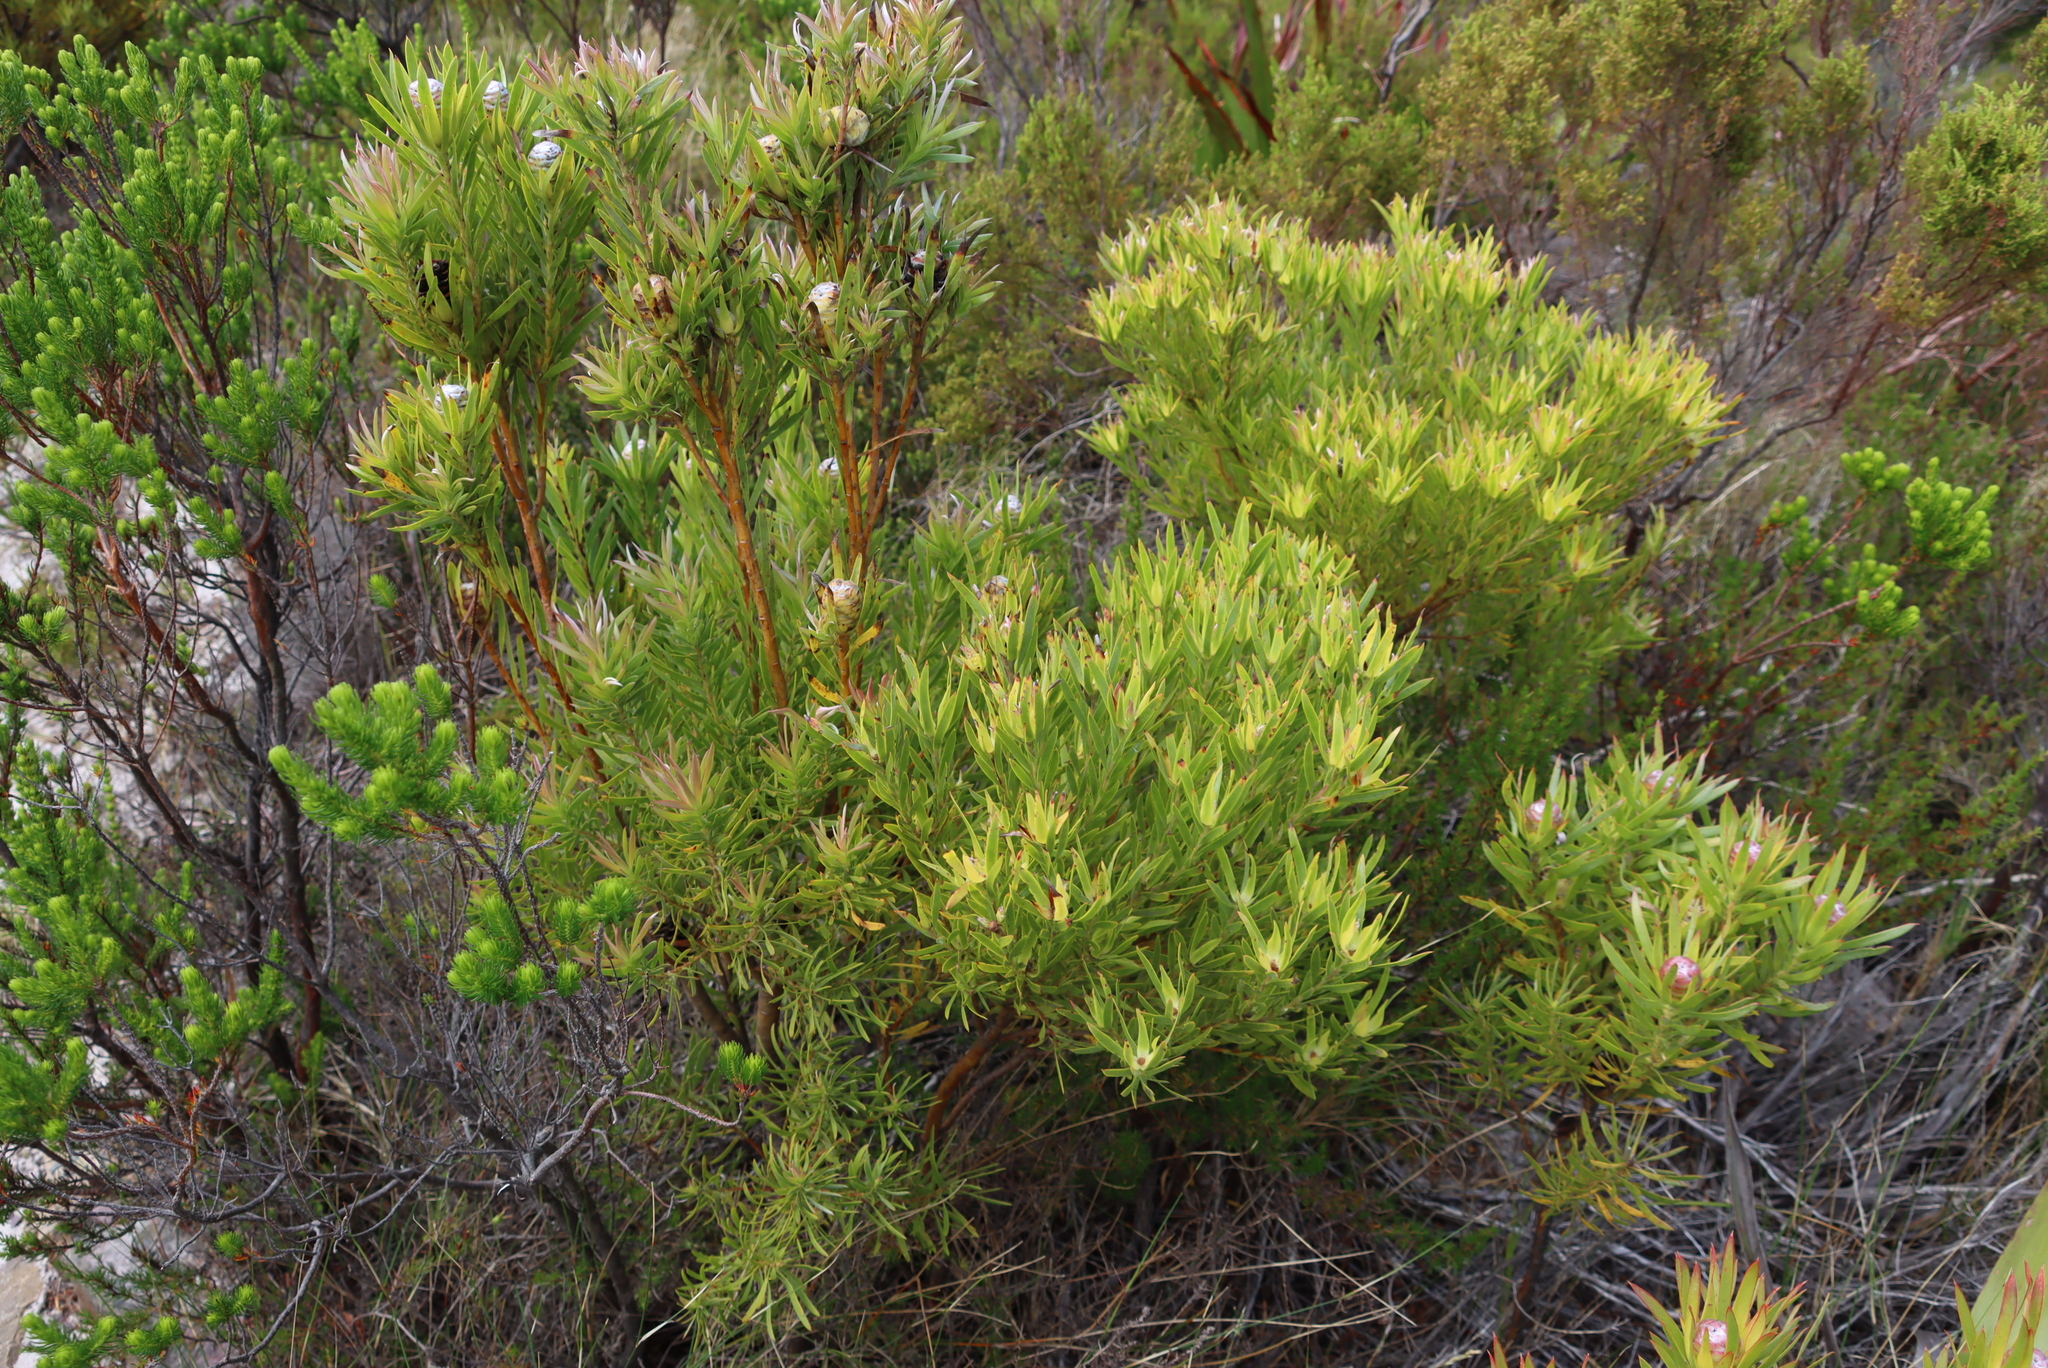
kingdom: Plantae
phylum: Tracheophyta
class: Magnoliopsida
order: Proteales
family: Proteaceae
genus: Leucadendron
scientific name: Leucadendron xanthoconus
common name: Sickle-leaf conebush
